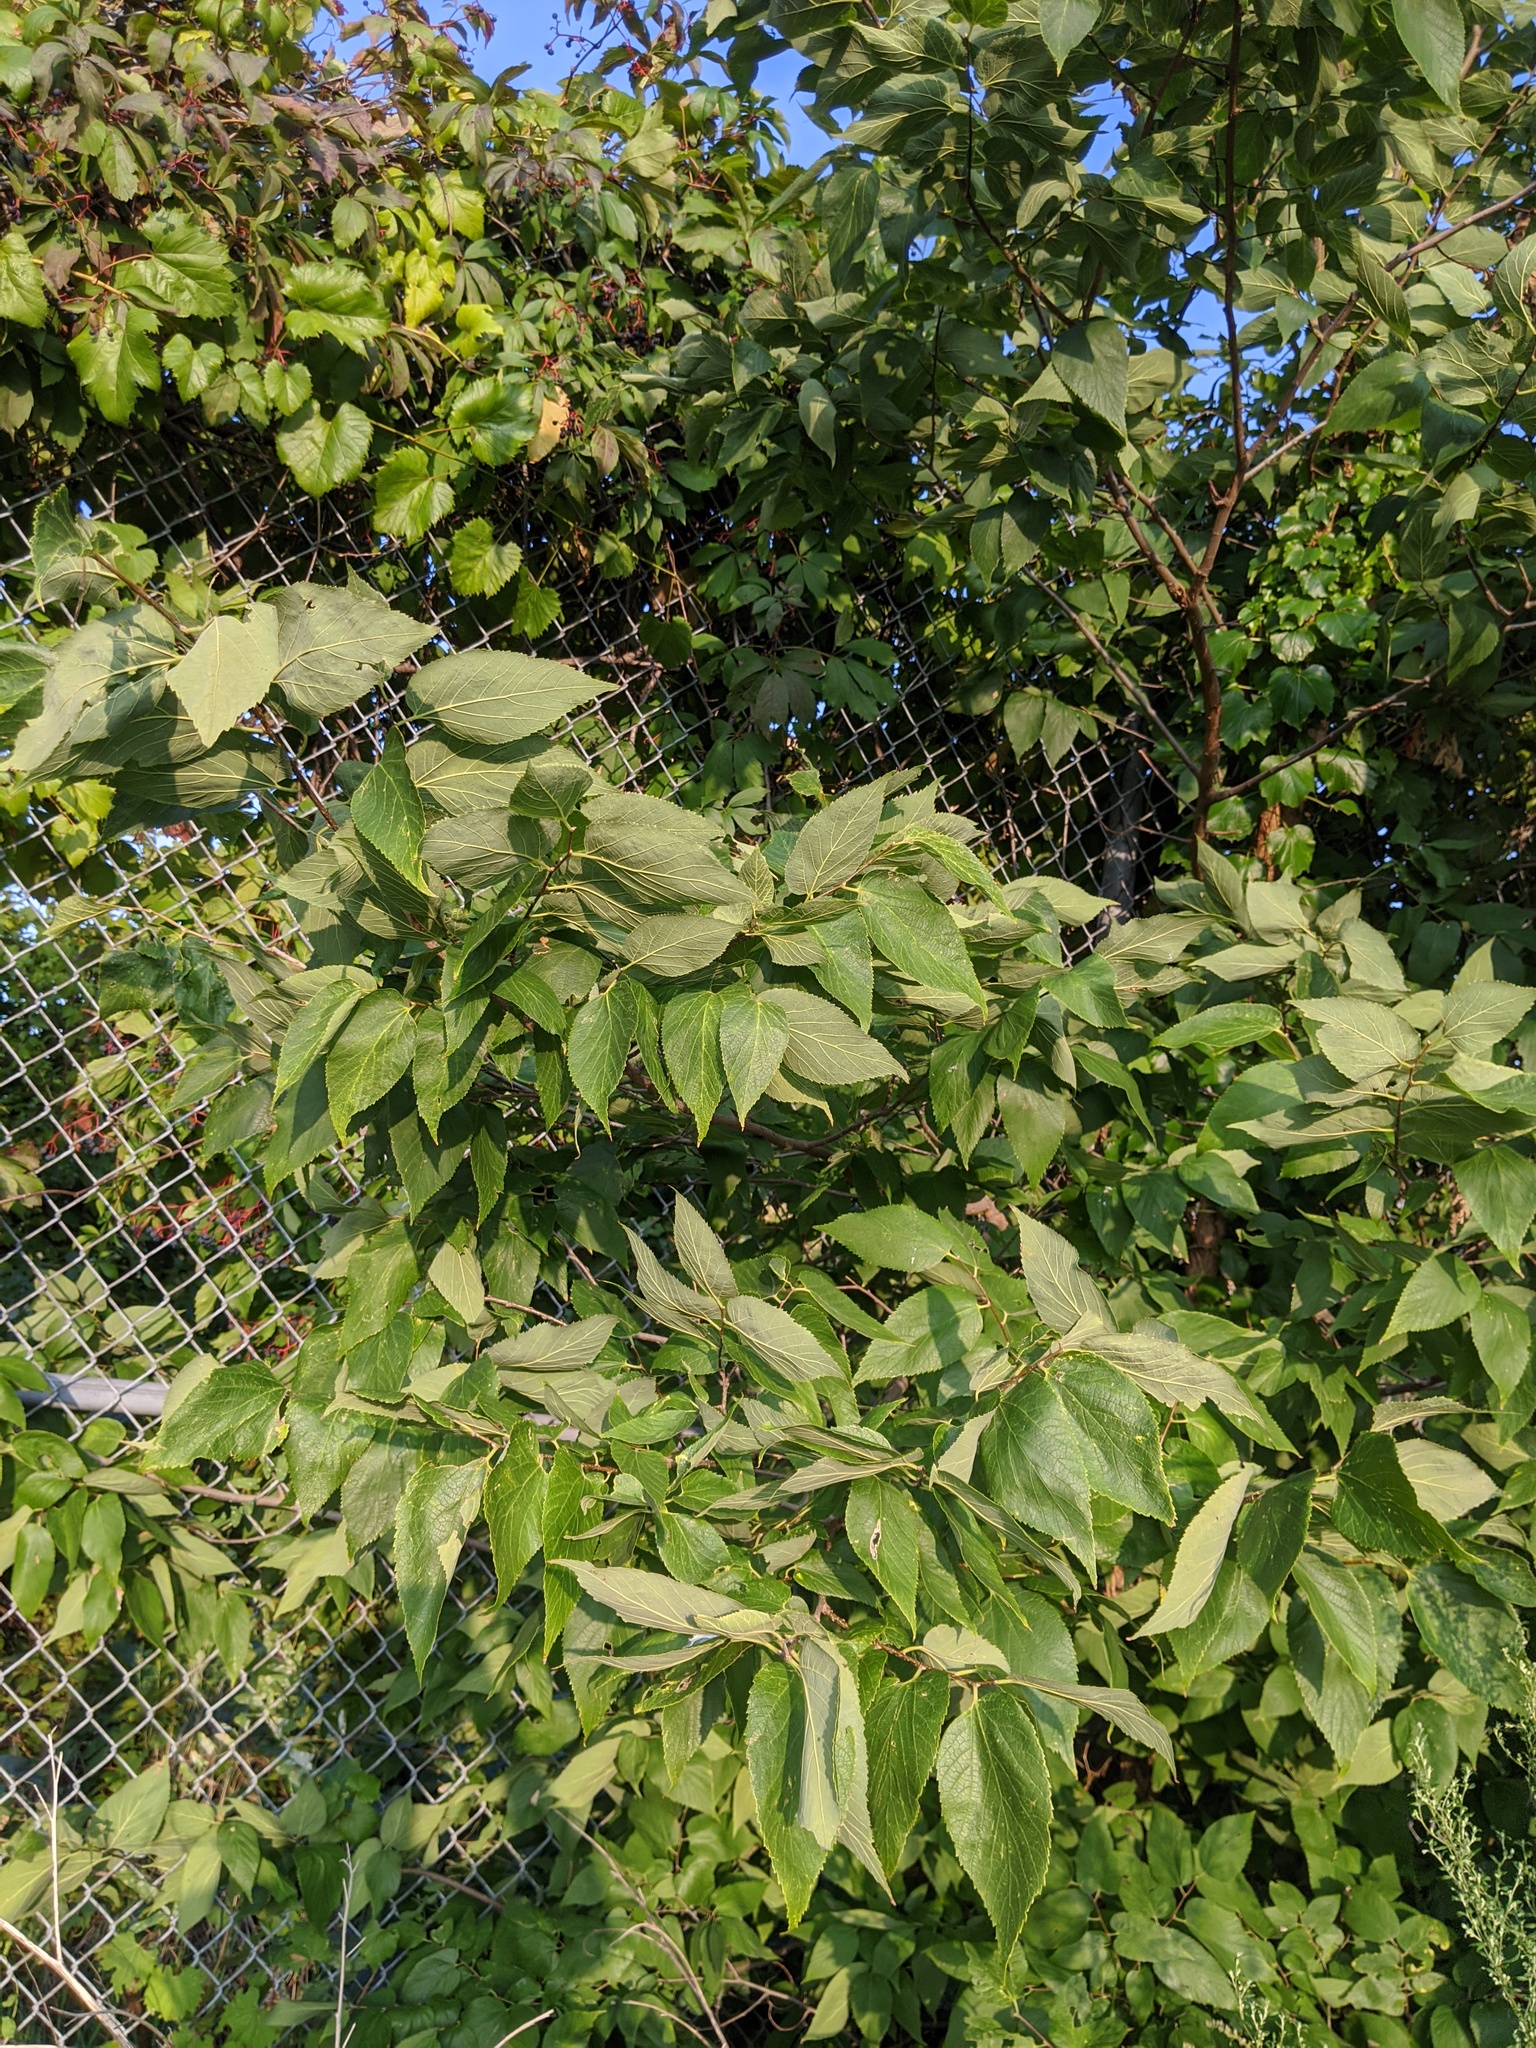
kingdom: Plantae
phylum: Tracheophyta
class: Magnoliopsida
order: Rosales
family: Cannabaceae
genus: Celtis
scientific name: Celtis occidentalis
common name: Common hackberry
